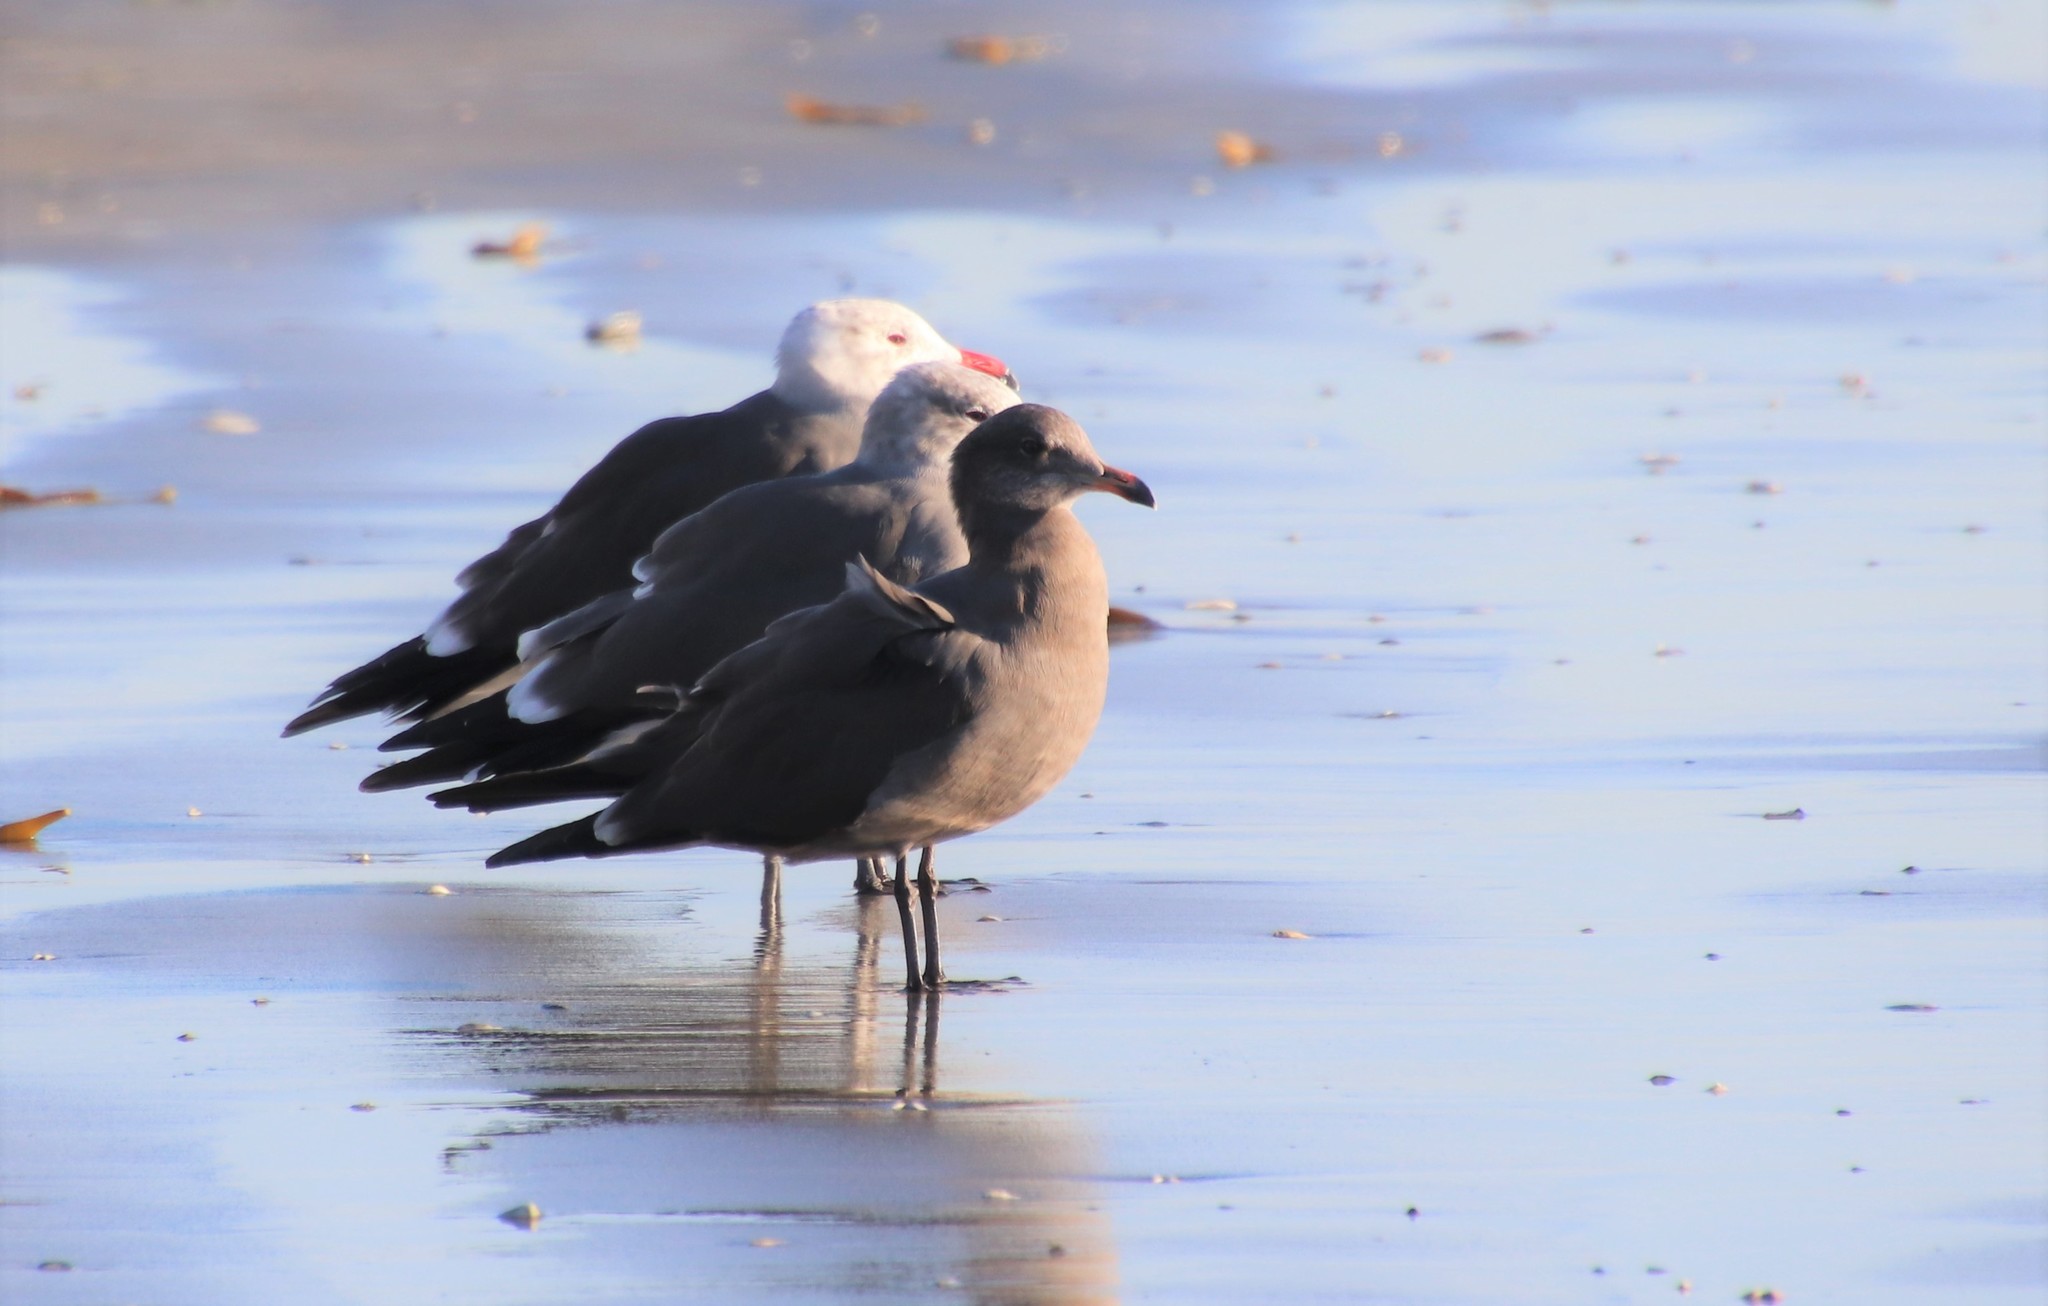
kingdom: Animalia
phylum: Chordata
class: Aves
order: Charadriiformes
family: Laridae
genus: Larus
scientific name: Larus heermanni
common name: Heermann's gull
